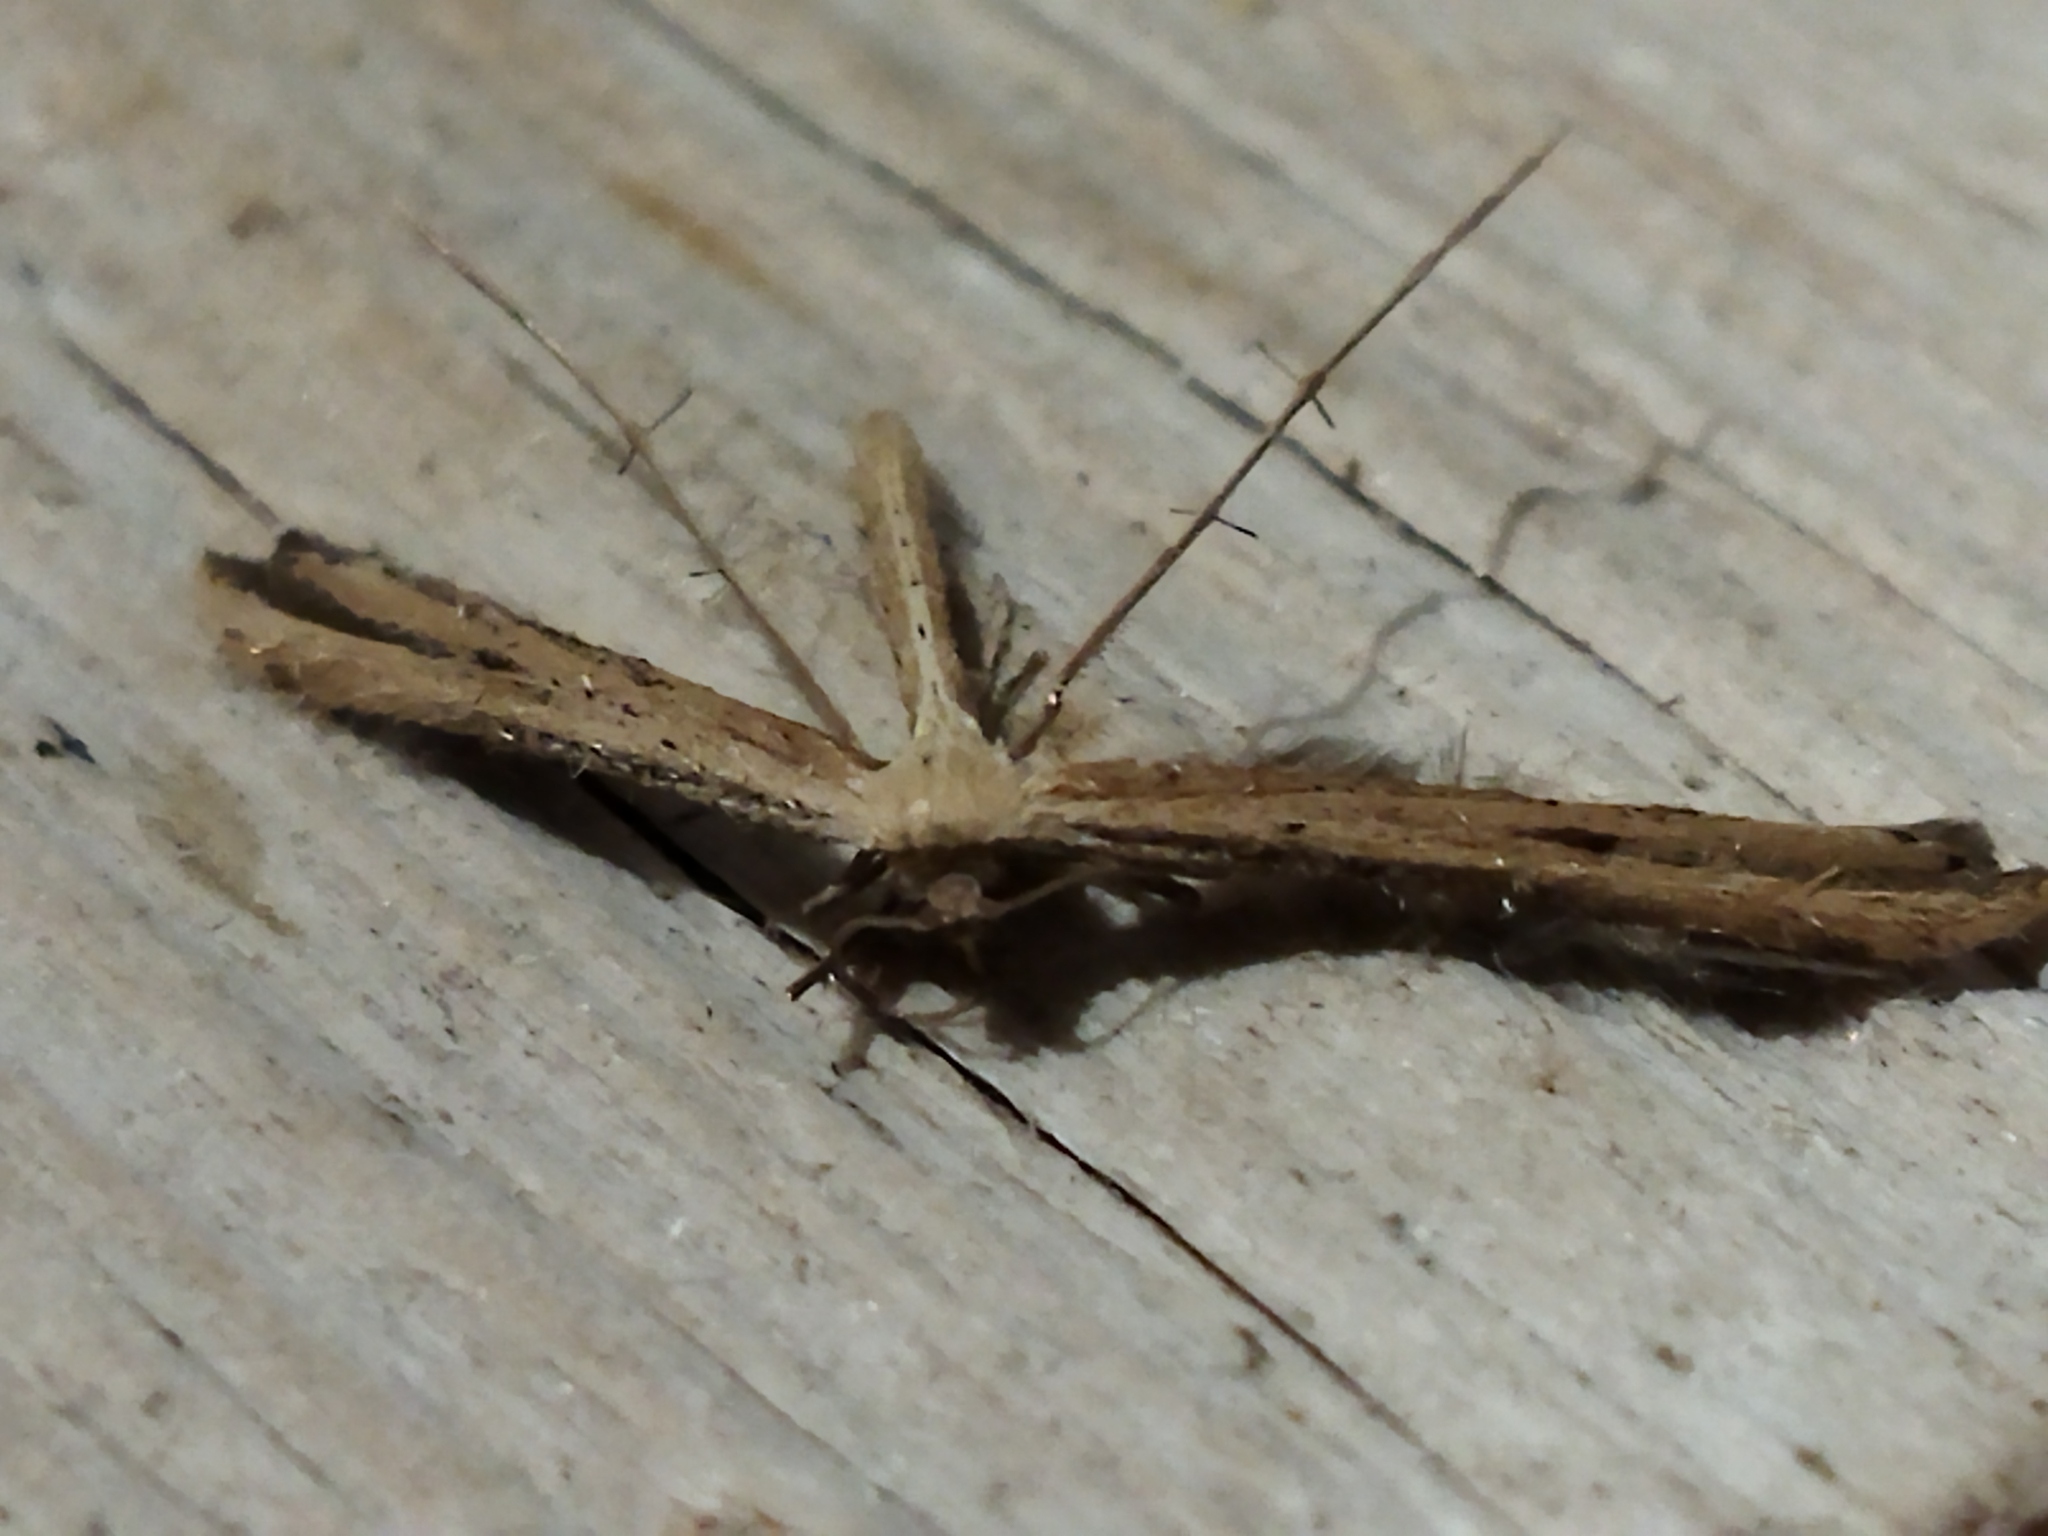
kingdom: Animalia
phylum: Arthropoda
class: Insecta
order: Lepidoptera
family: Pterophoridae
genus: Emmelina
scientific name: Emmelina monodactyla
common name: Common plume
